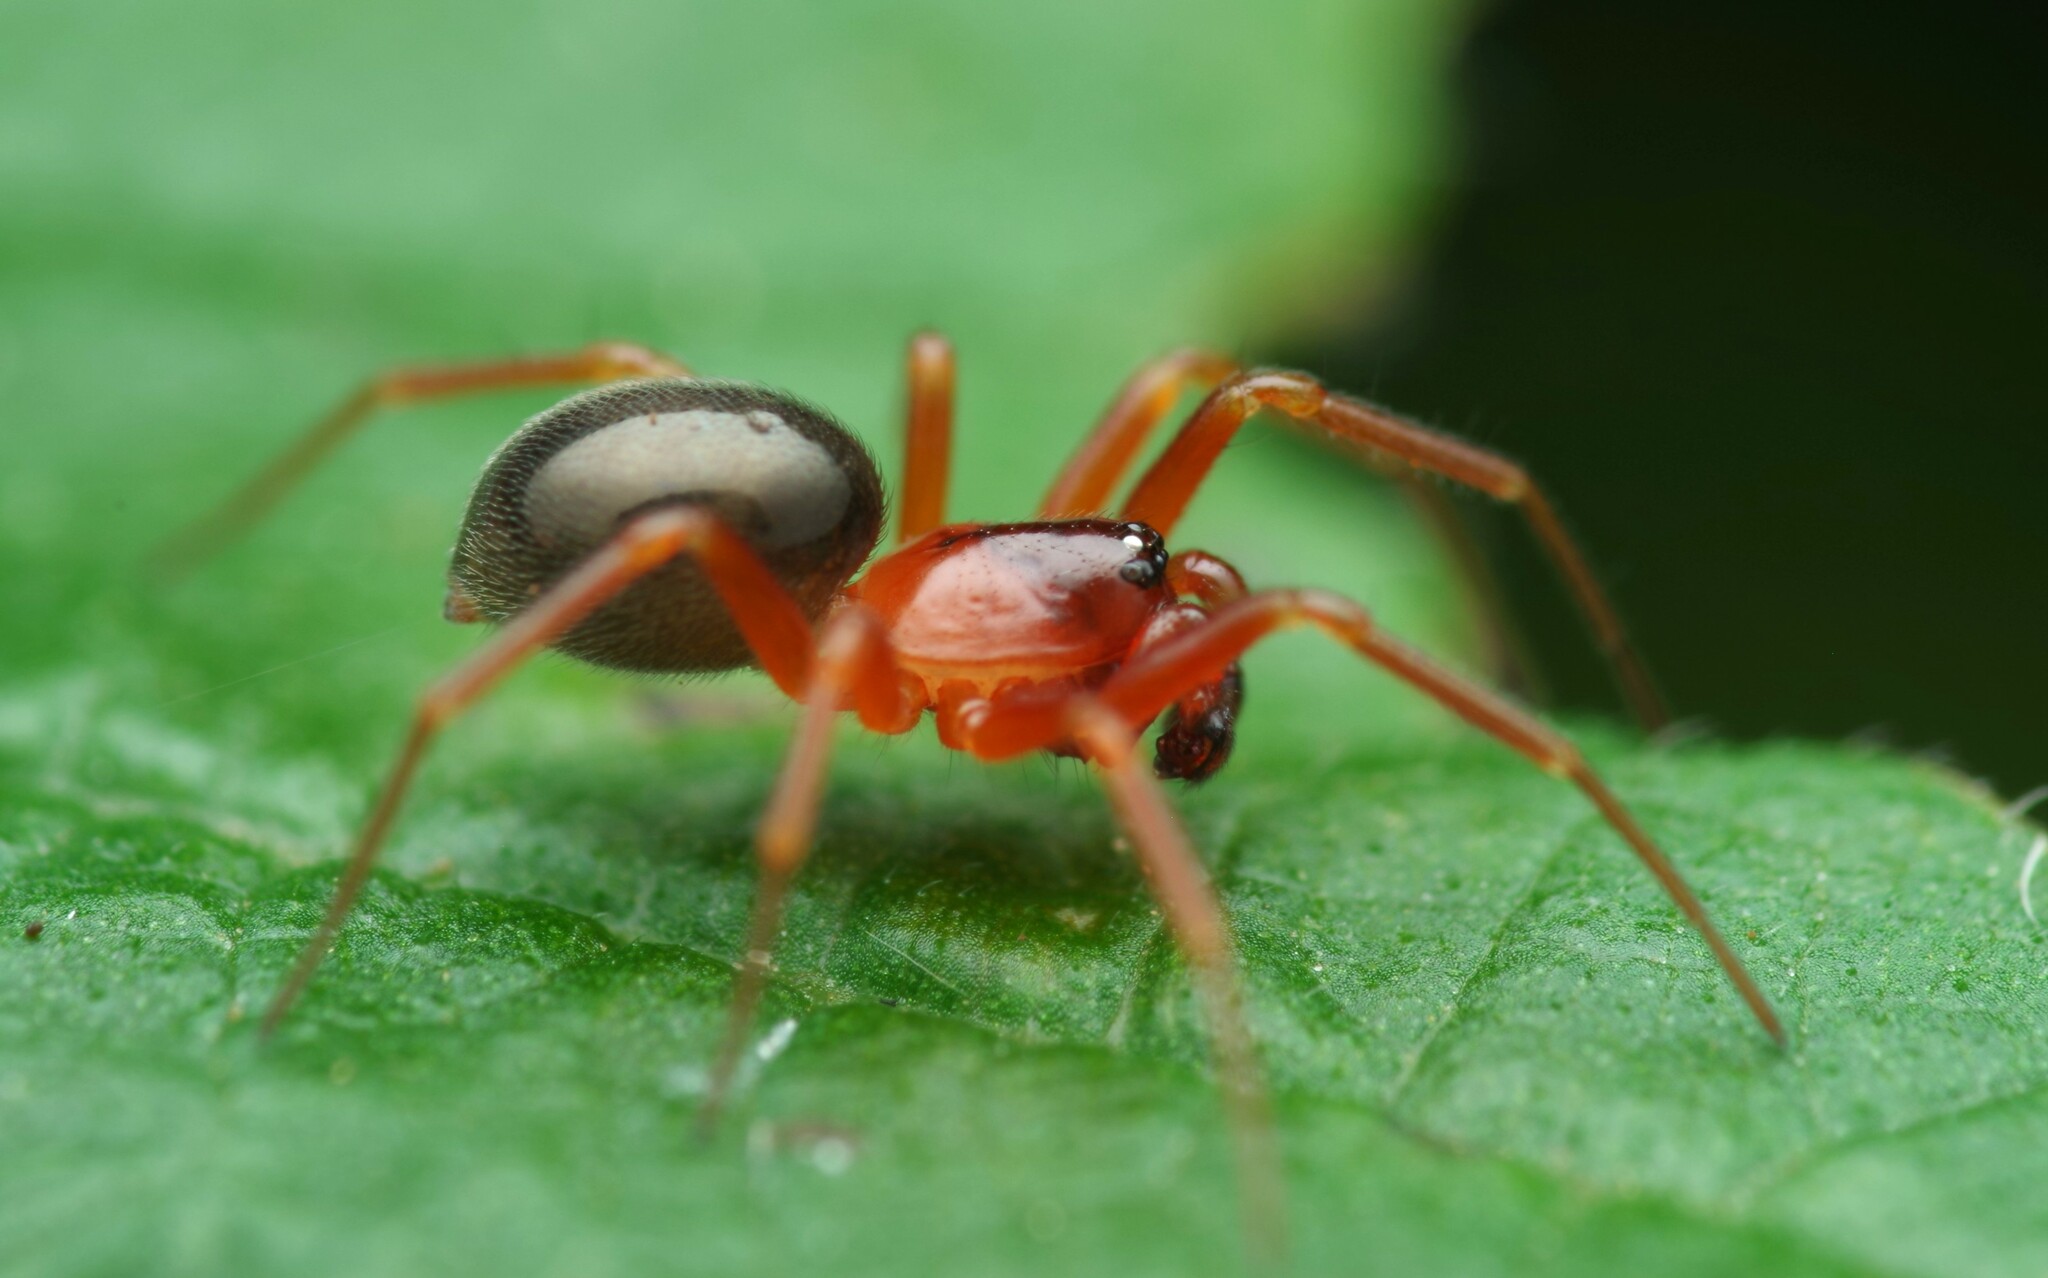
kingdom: Animalia
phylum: Arthropoda
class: Arachnida
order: Araneae
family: Linyphiidae
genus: Gongylidium
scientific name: Gongylidium rufipes
